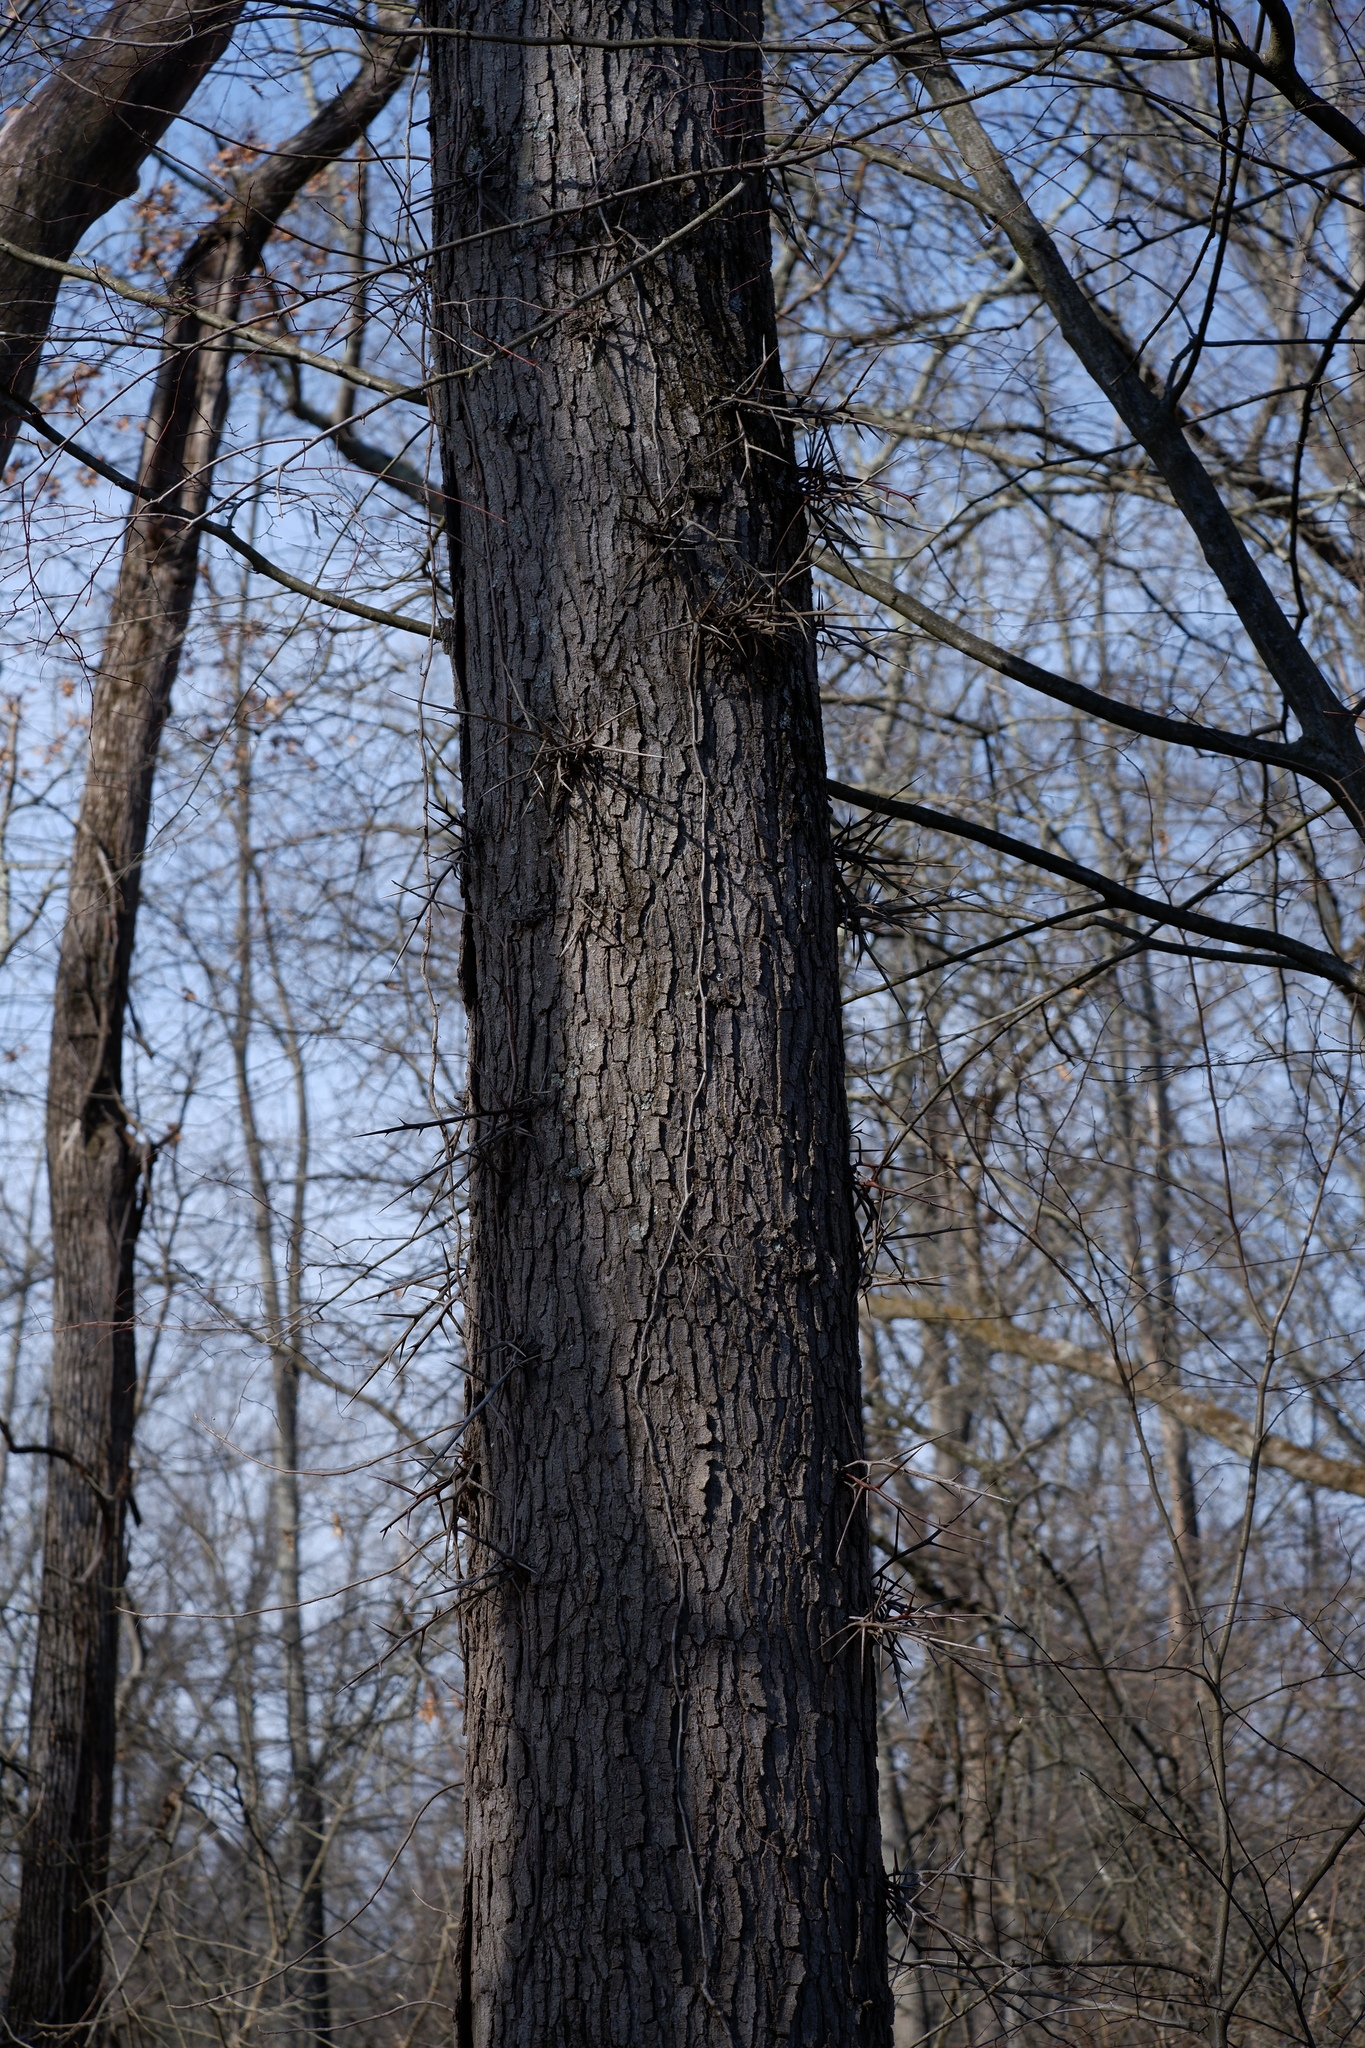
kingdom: Plantae
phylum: Tracheophyta
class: Magnoliopsida
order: Fabales
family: Fabaceae
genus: Gleditsia
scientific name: Gleditsia triacanthos
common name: Common honeylocust
